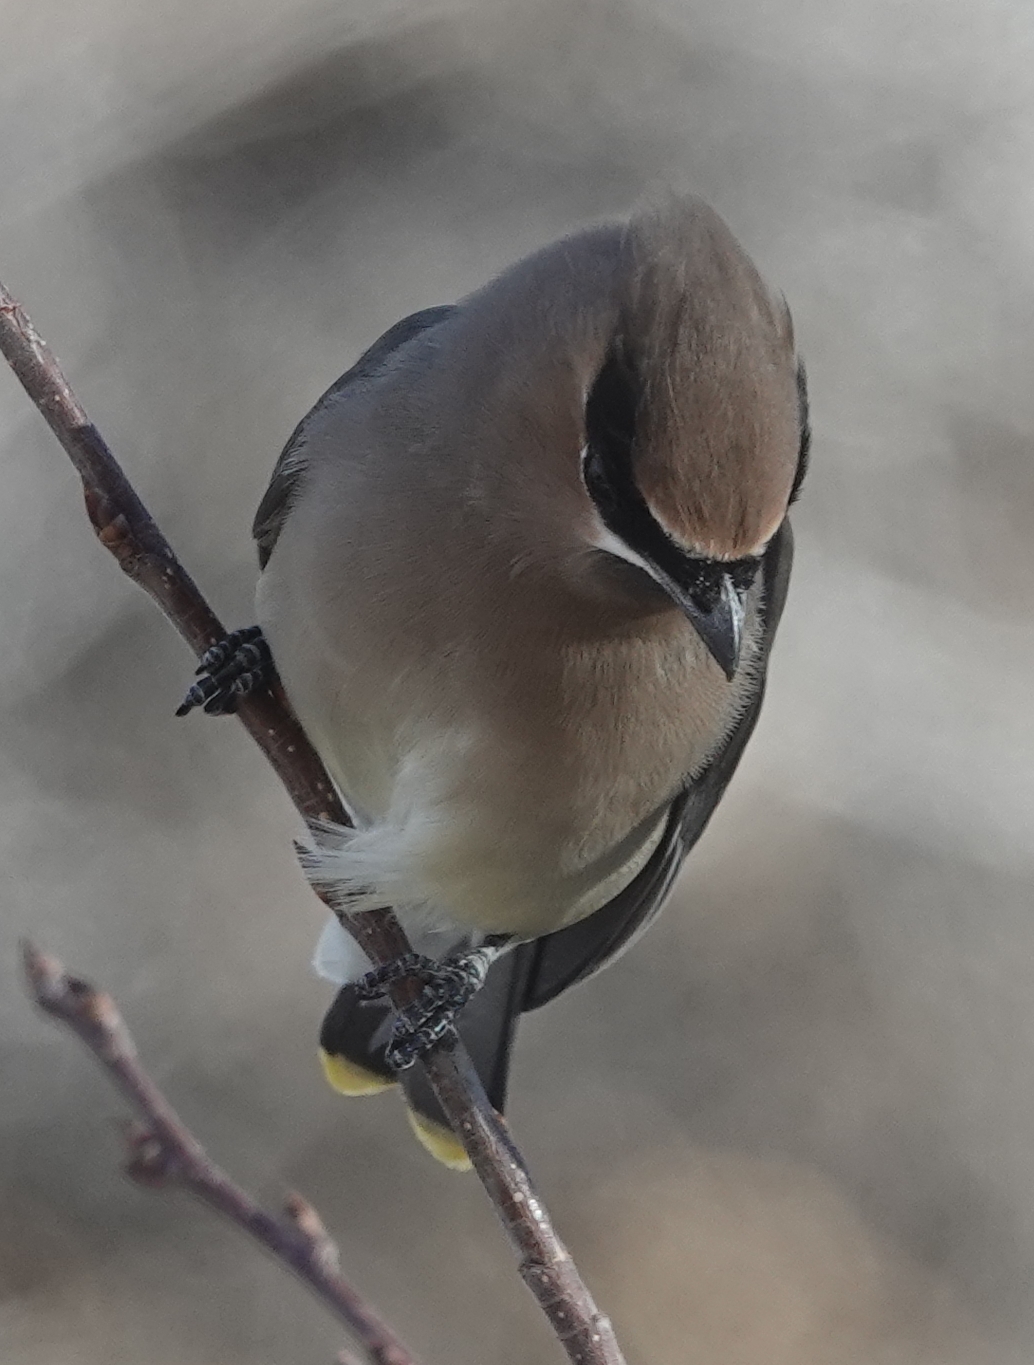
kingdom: Animalia
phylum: Chordata
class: Aves
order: Passeriformes
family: Bombycillidae
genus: Bombycilla
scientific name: Bombycilla cedrorum
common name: Cedar waxwing
